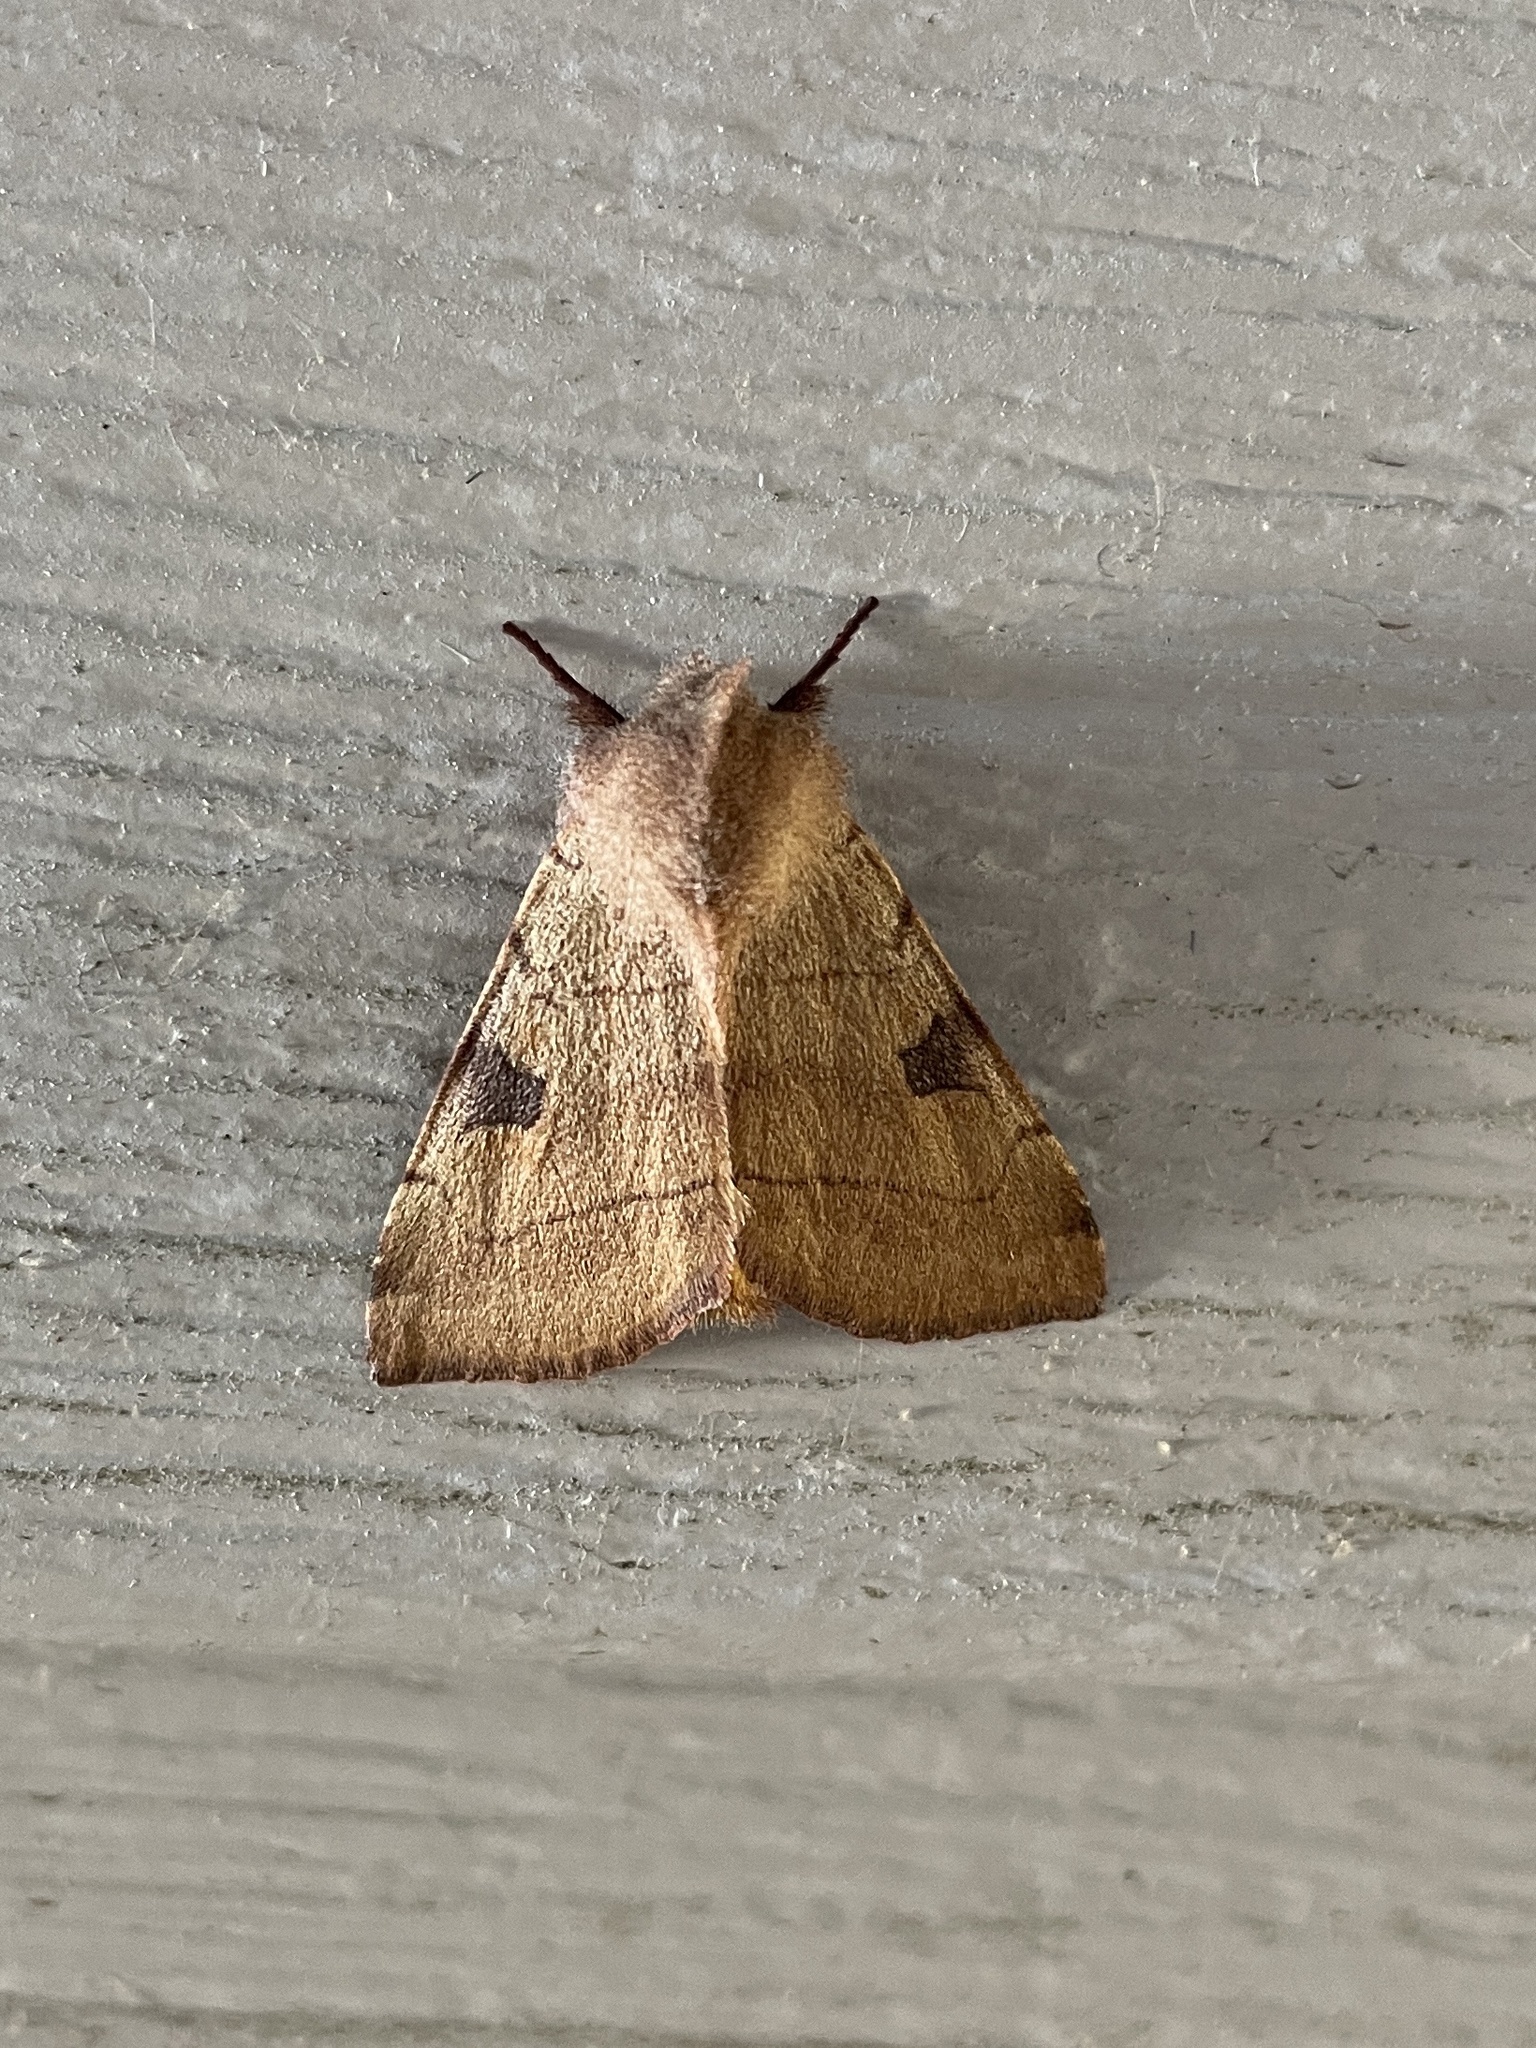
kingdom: Animalia
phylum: Arthropoda
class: Insecta
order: Lepidoptera
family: Noctuidae
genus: Choephora
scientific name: Choephora fungorum
